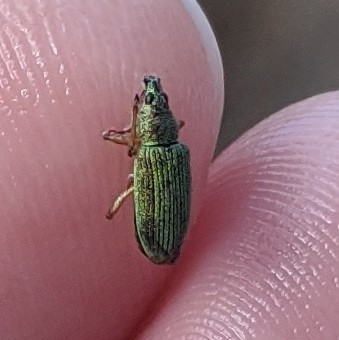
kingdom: Animalia
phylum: Arthropoda
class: Insecta
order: Coleoptera
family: Curculionidae
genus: Polydrusus
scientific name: Polydrusus formosus
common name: Weevil
